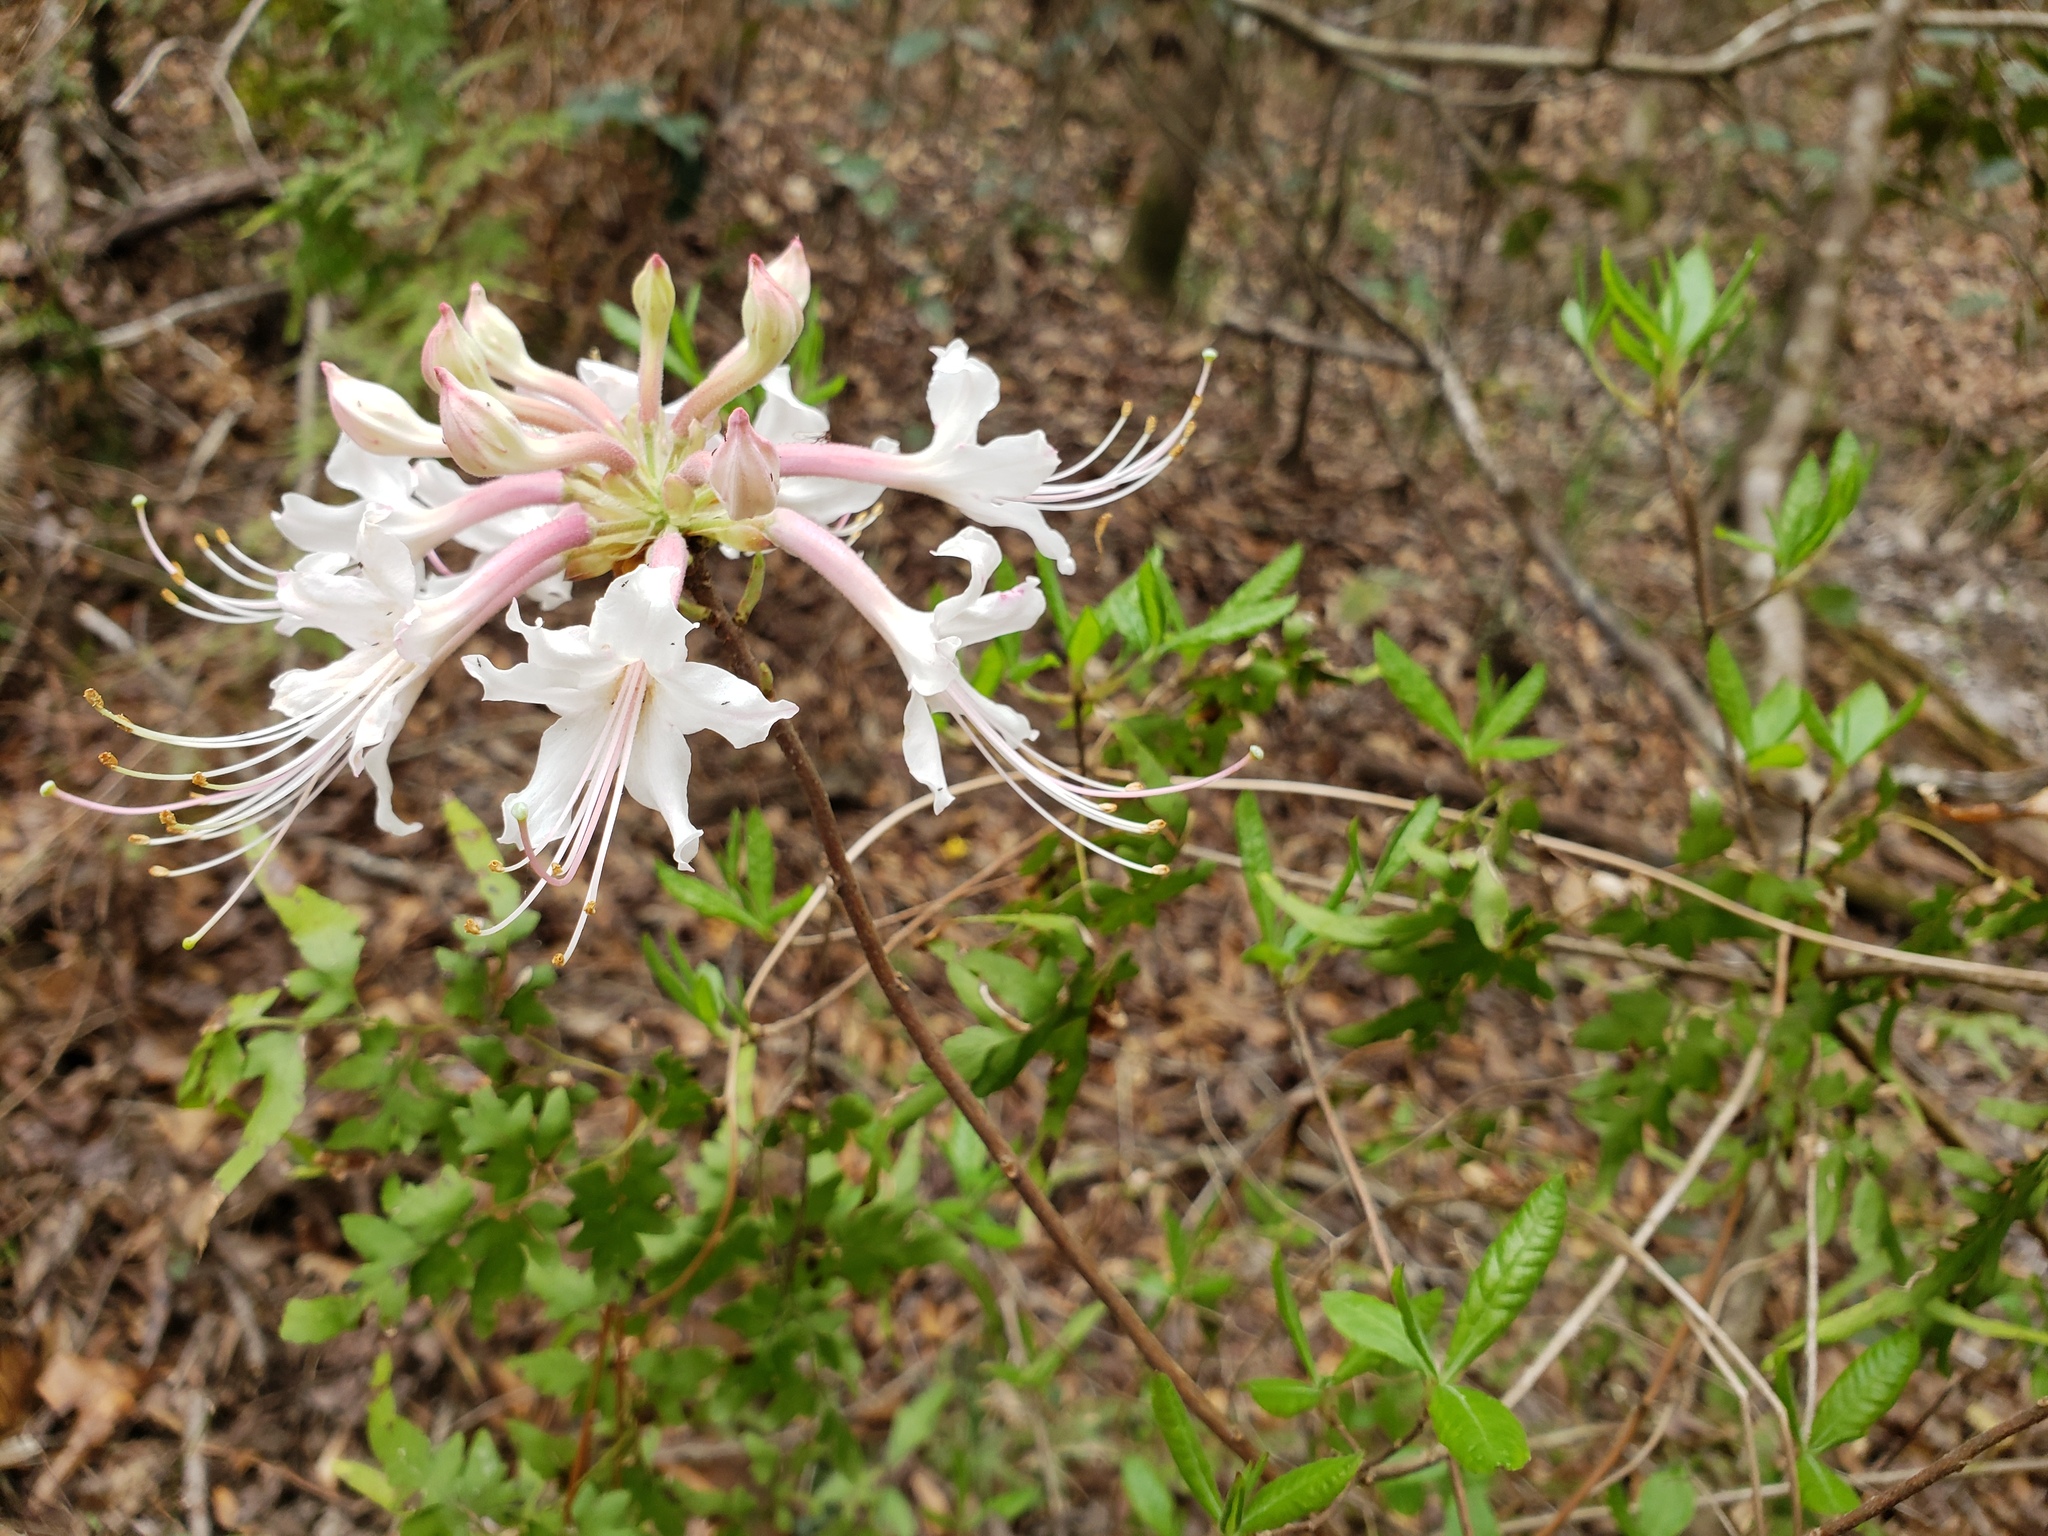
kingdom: Plantae
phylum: Tracheophyta
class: Magnoliopsida
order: Ericales
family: Ericaceae
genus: Rhododendron
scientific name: Rhododendron canescens
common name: Mountain azalea
